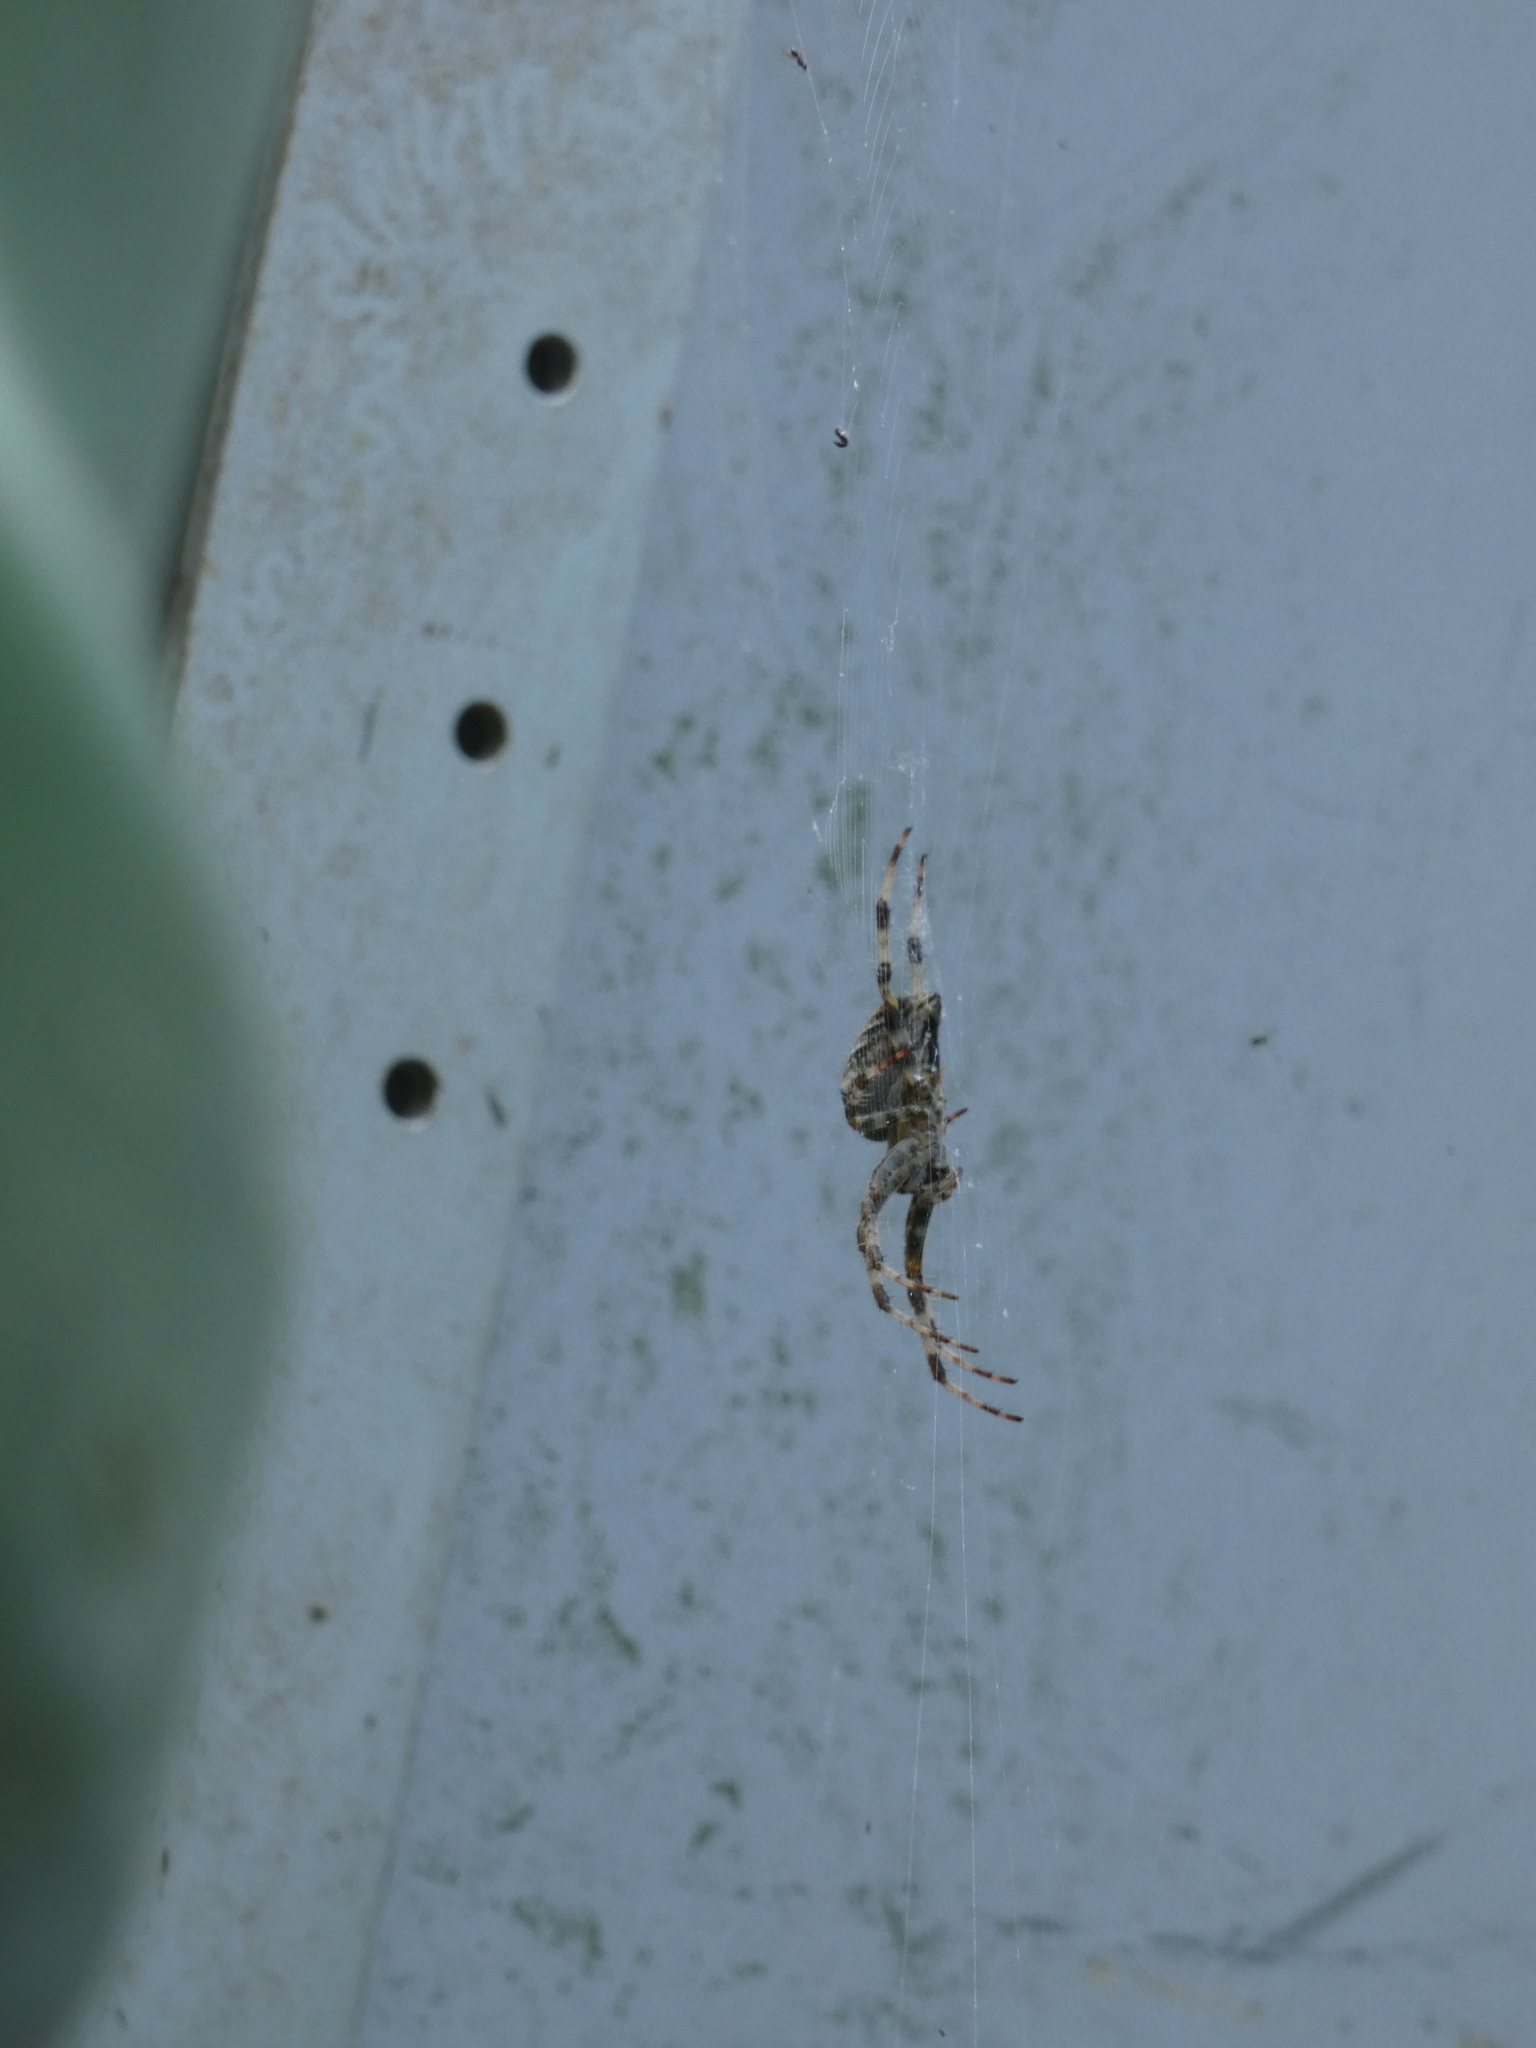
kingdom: Animalia
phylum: Arthropoda
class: Arachnida
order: Araneae
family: Araneidae
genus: Araneus
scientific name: Araneus diadematus
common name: Cross orbweaver
